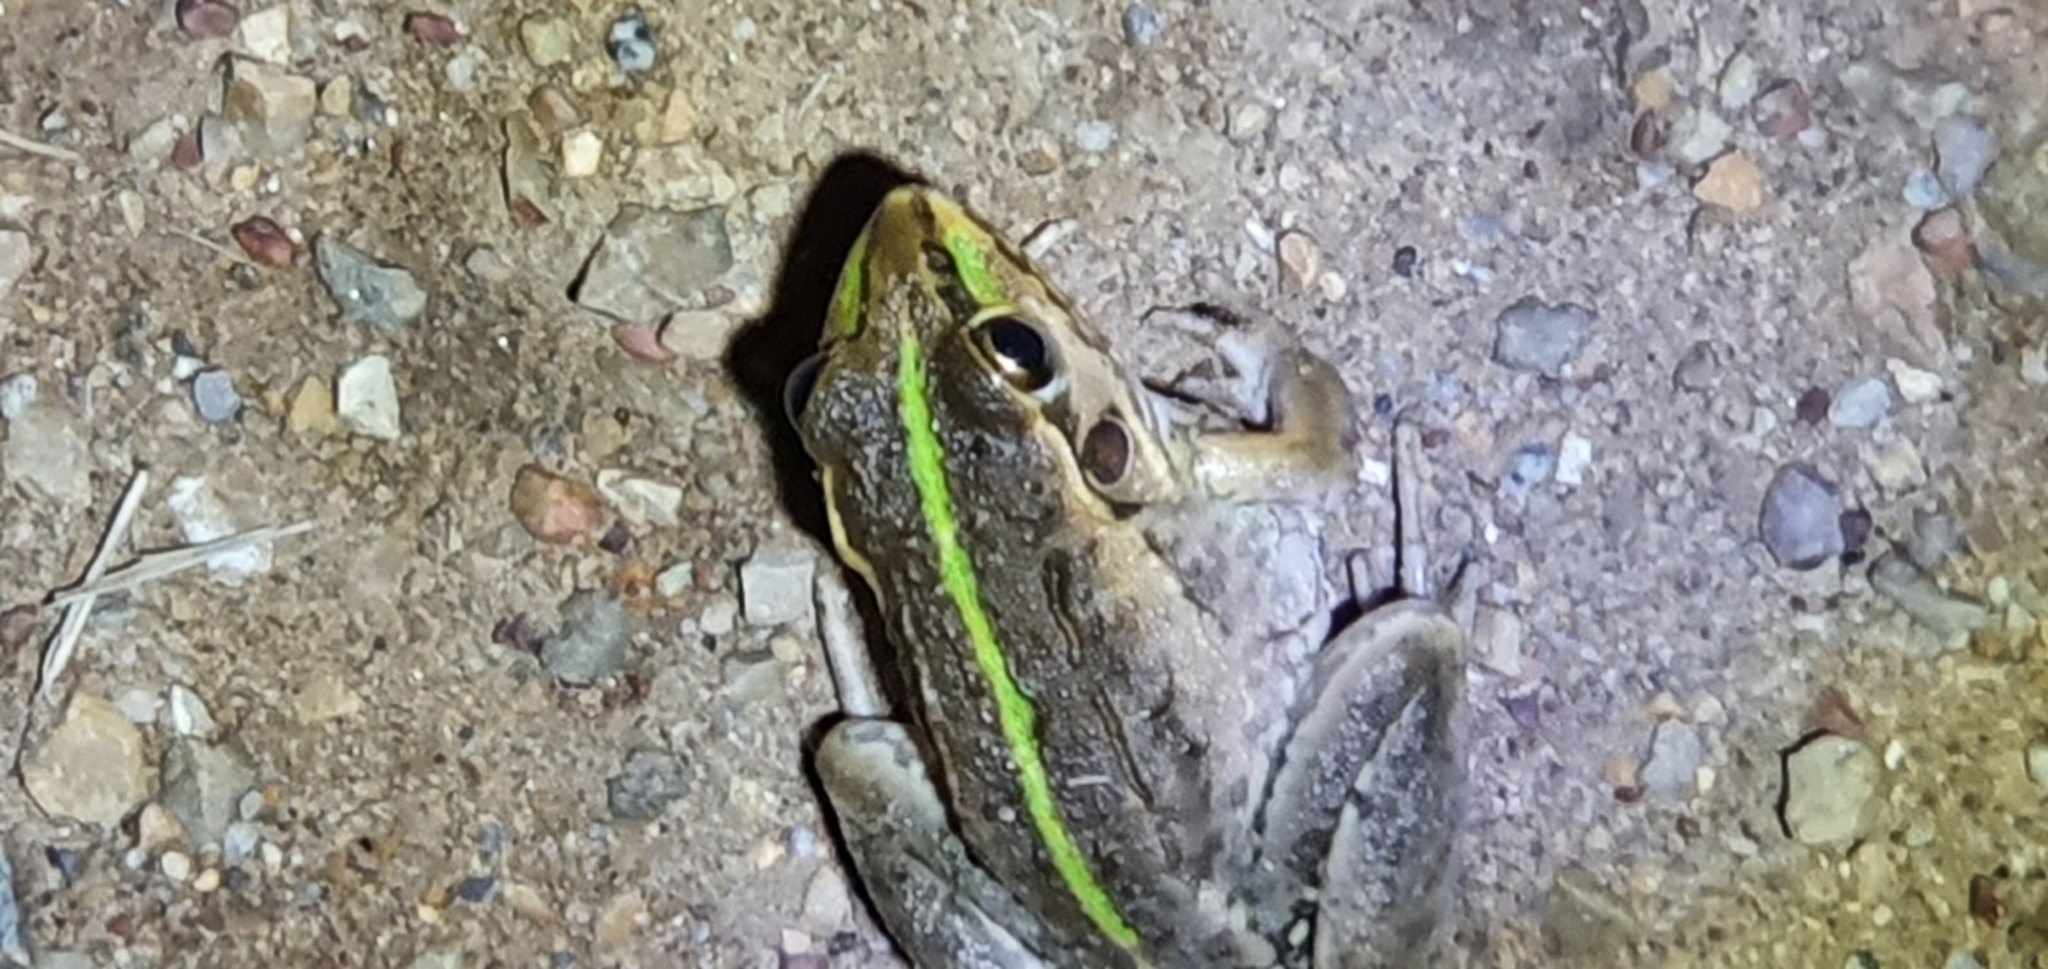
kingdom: Animalia
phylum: Chordata
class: Amphibia
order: Anura
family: Pelodryadidae
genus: Ranoidea
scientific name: Ranoidea alboguttata
